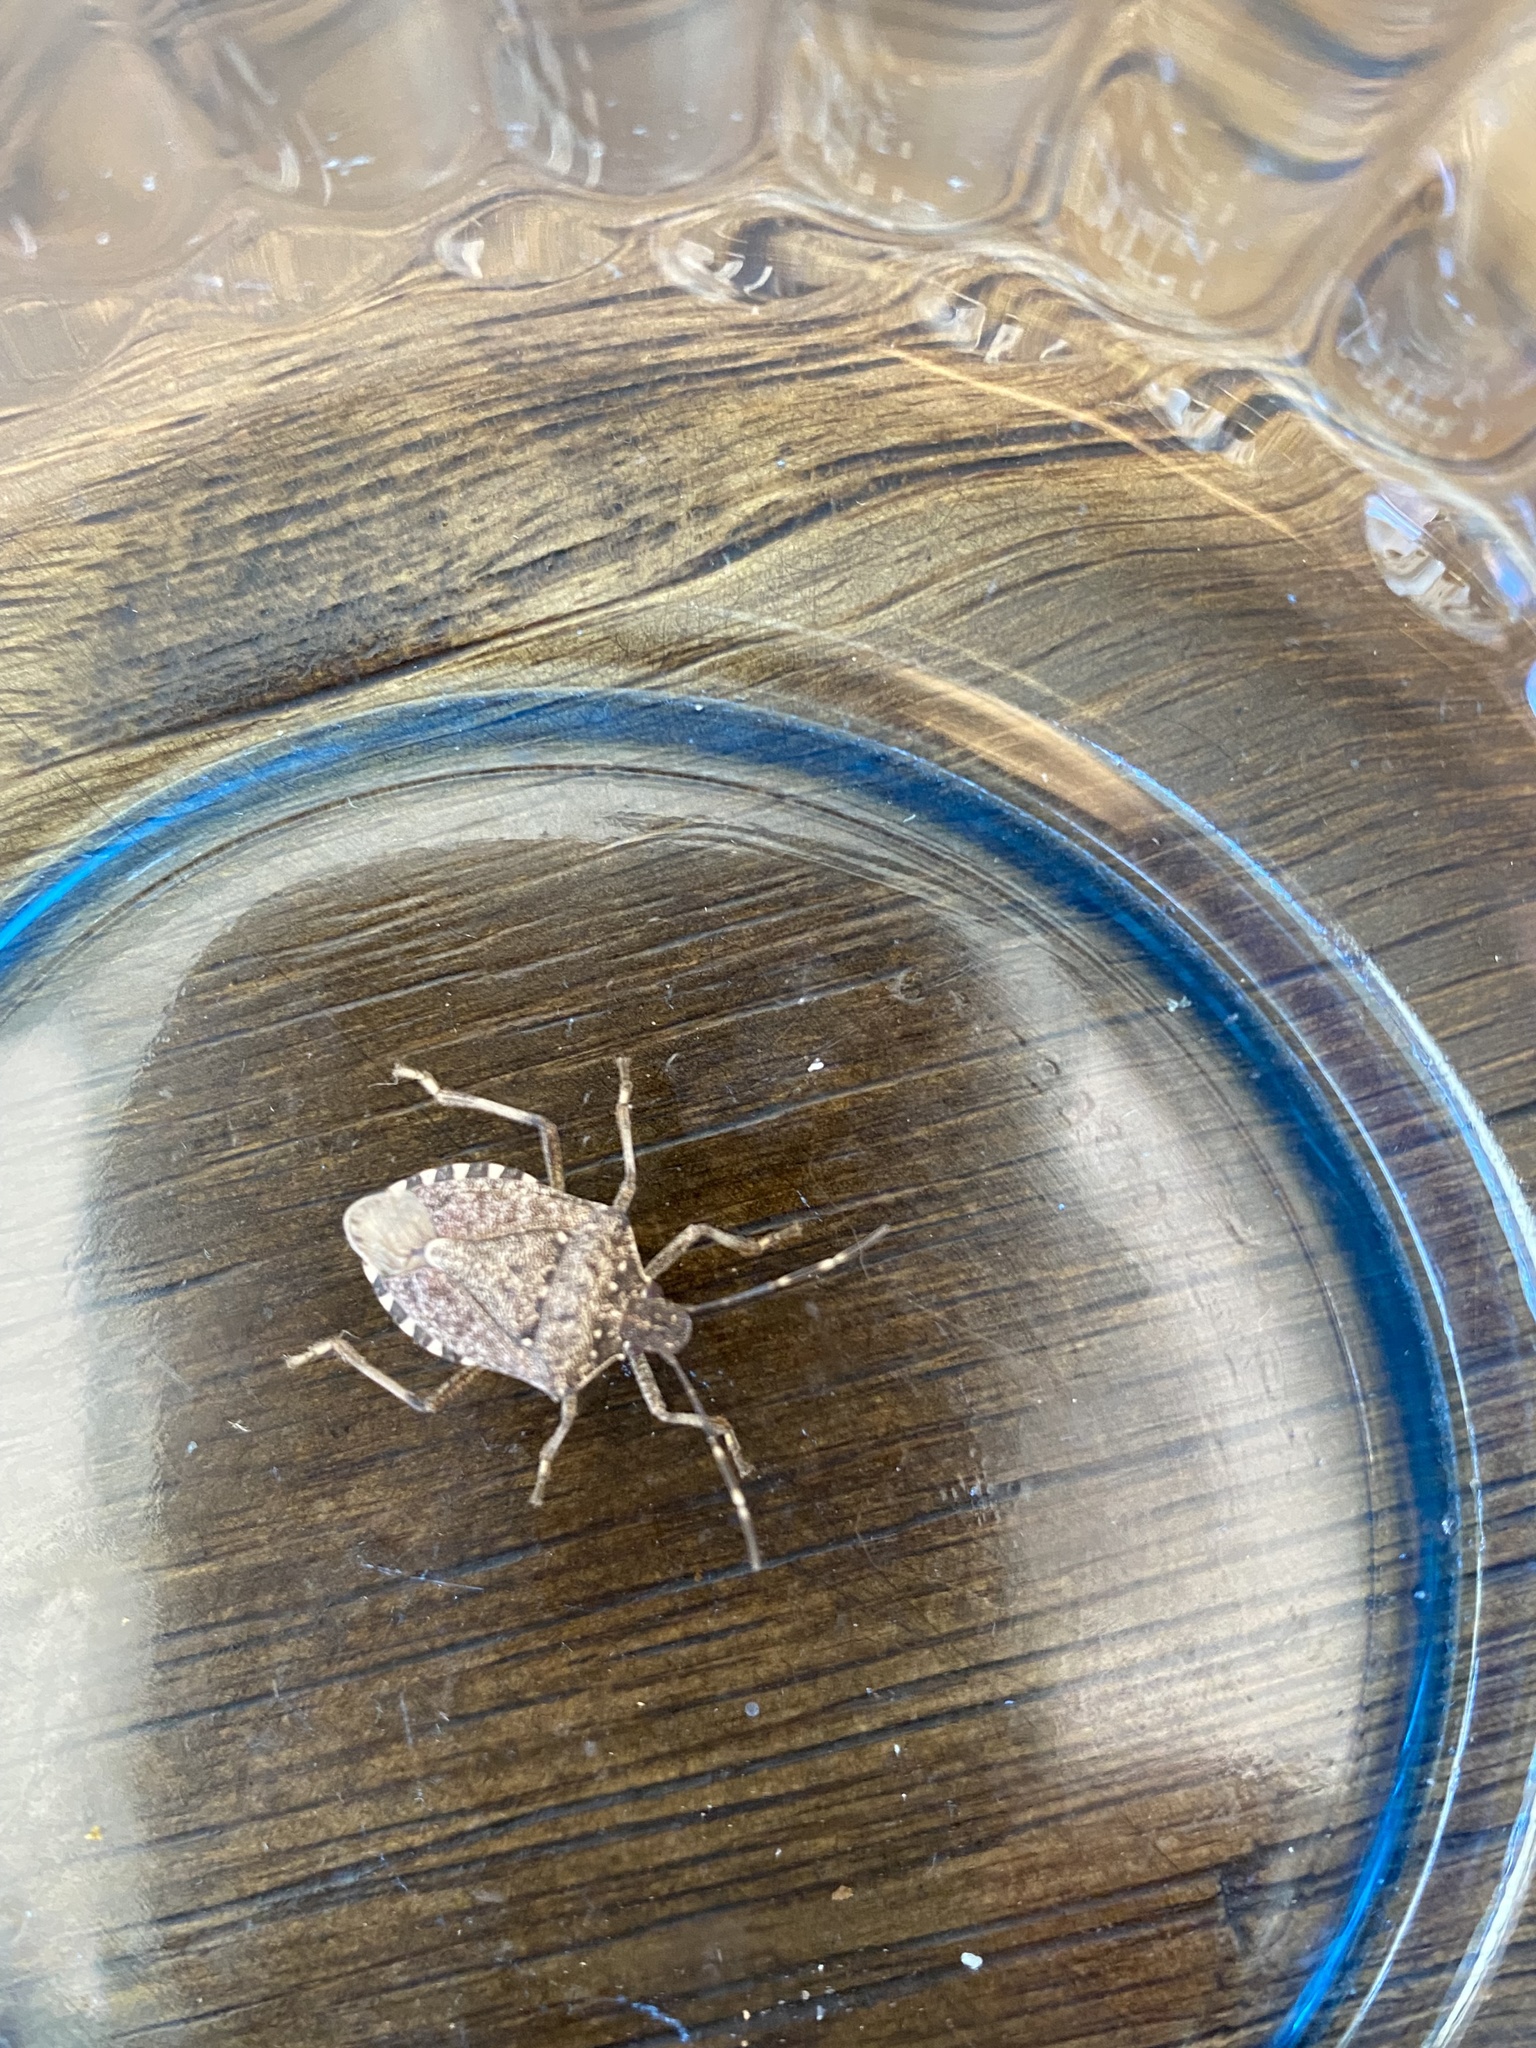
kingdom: Animalia
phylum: Arthropoda
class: Insecta
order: Hemiptera
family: Pentatomidae
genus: Halyomorpha
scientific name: Halyomorpha halys
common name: Brown marmorated stink bug
